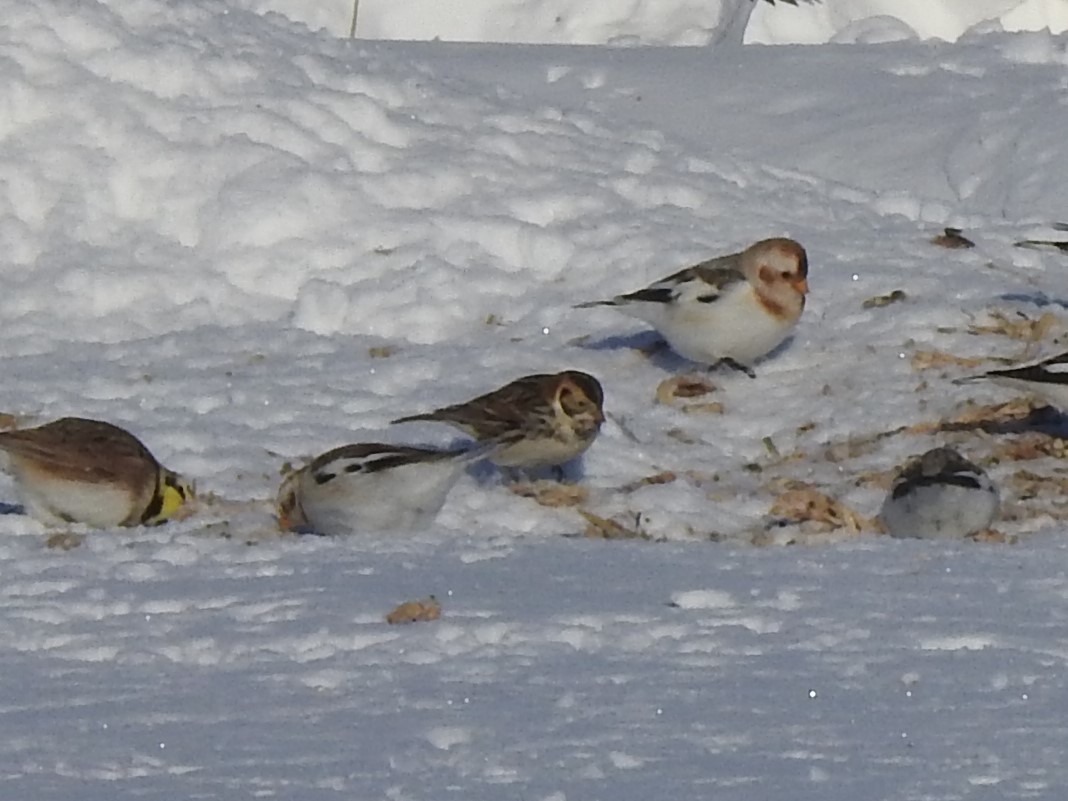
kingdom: Animalia
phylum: Chordata
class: Aves
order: Passeriformes
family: Calcariidae
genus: Calcarius
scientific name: Calcarius lapponicus
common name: Lapland longspur
